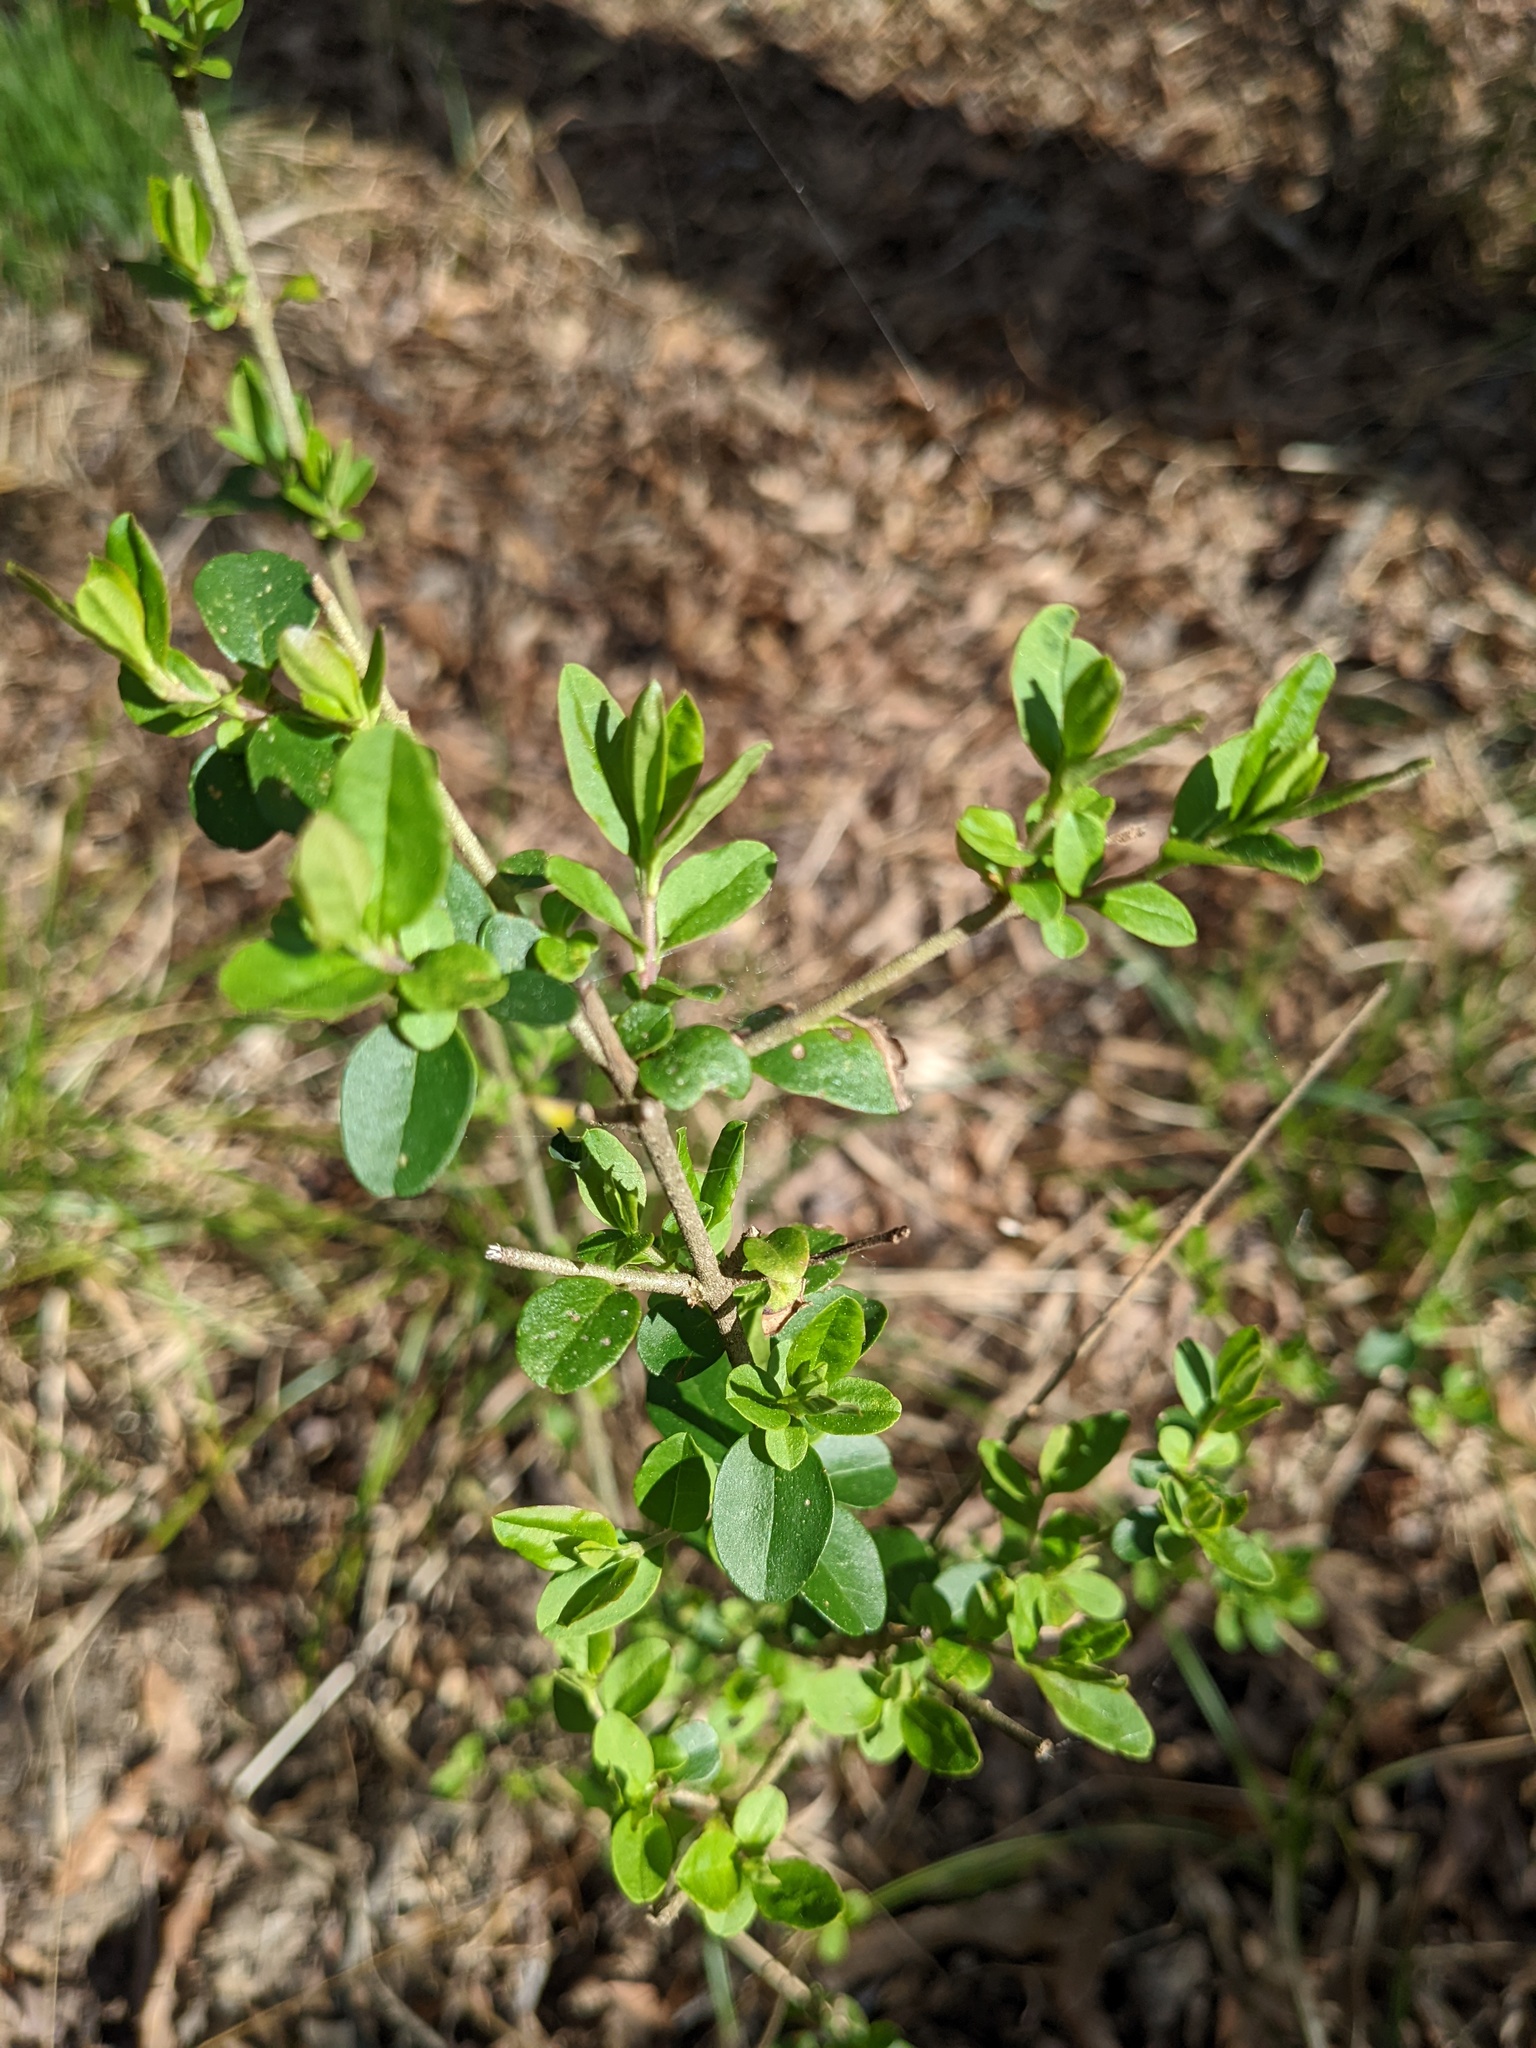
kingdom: Plantae
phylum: Tracheophyta
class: Magnoliopsida
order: Lamiales
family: Oleaceae
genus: Ligustrum
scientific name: Ligustrum sinense
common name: Chinese privet
